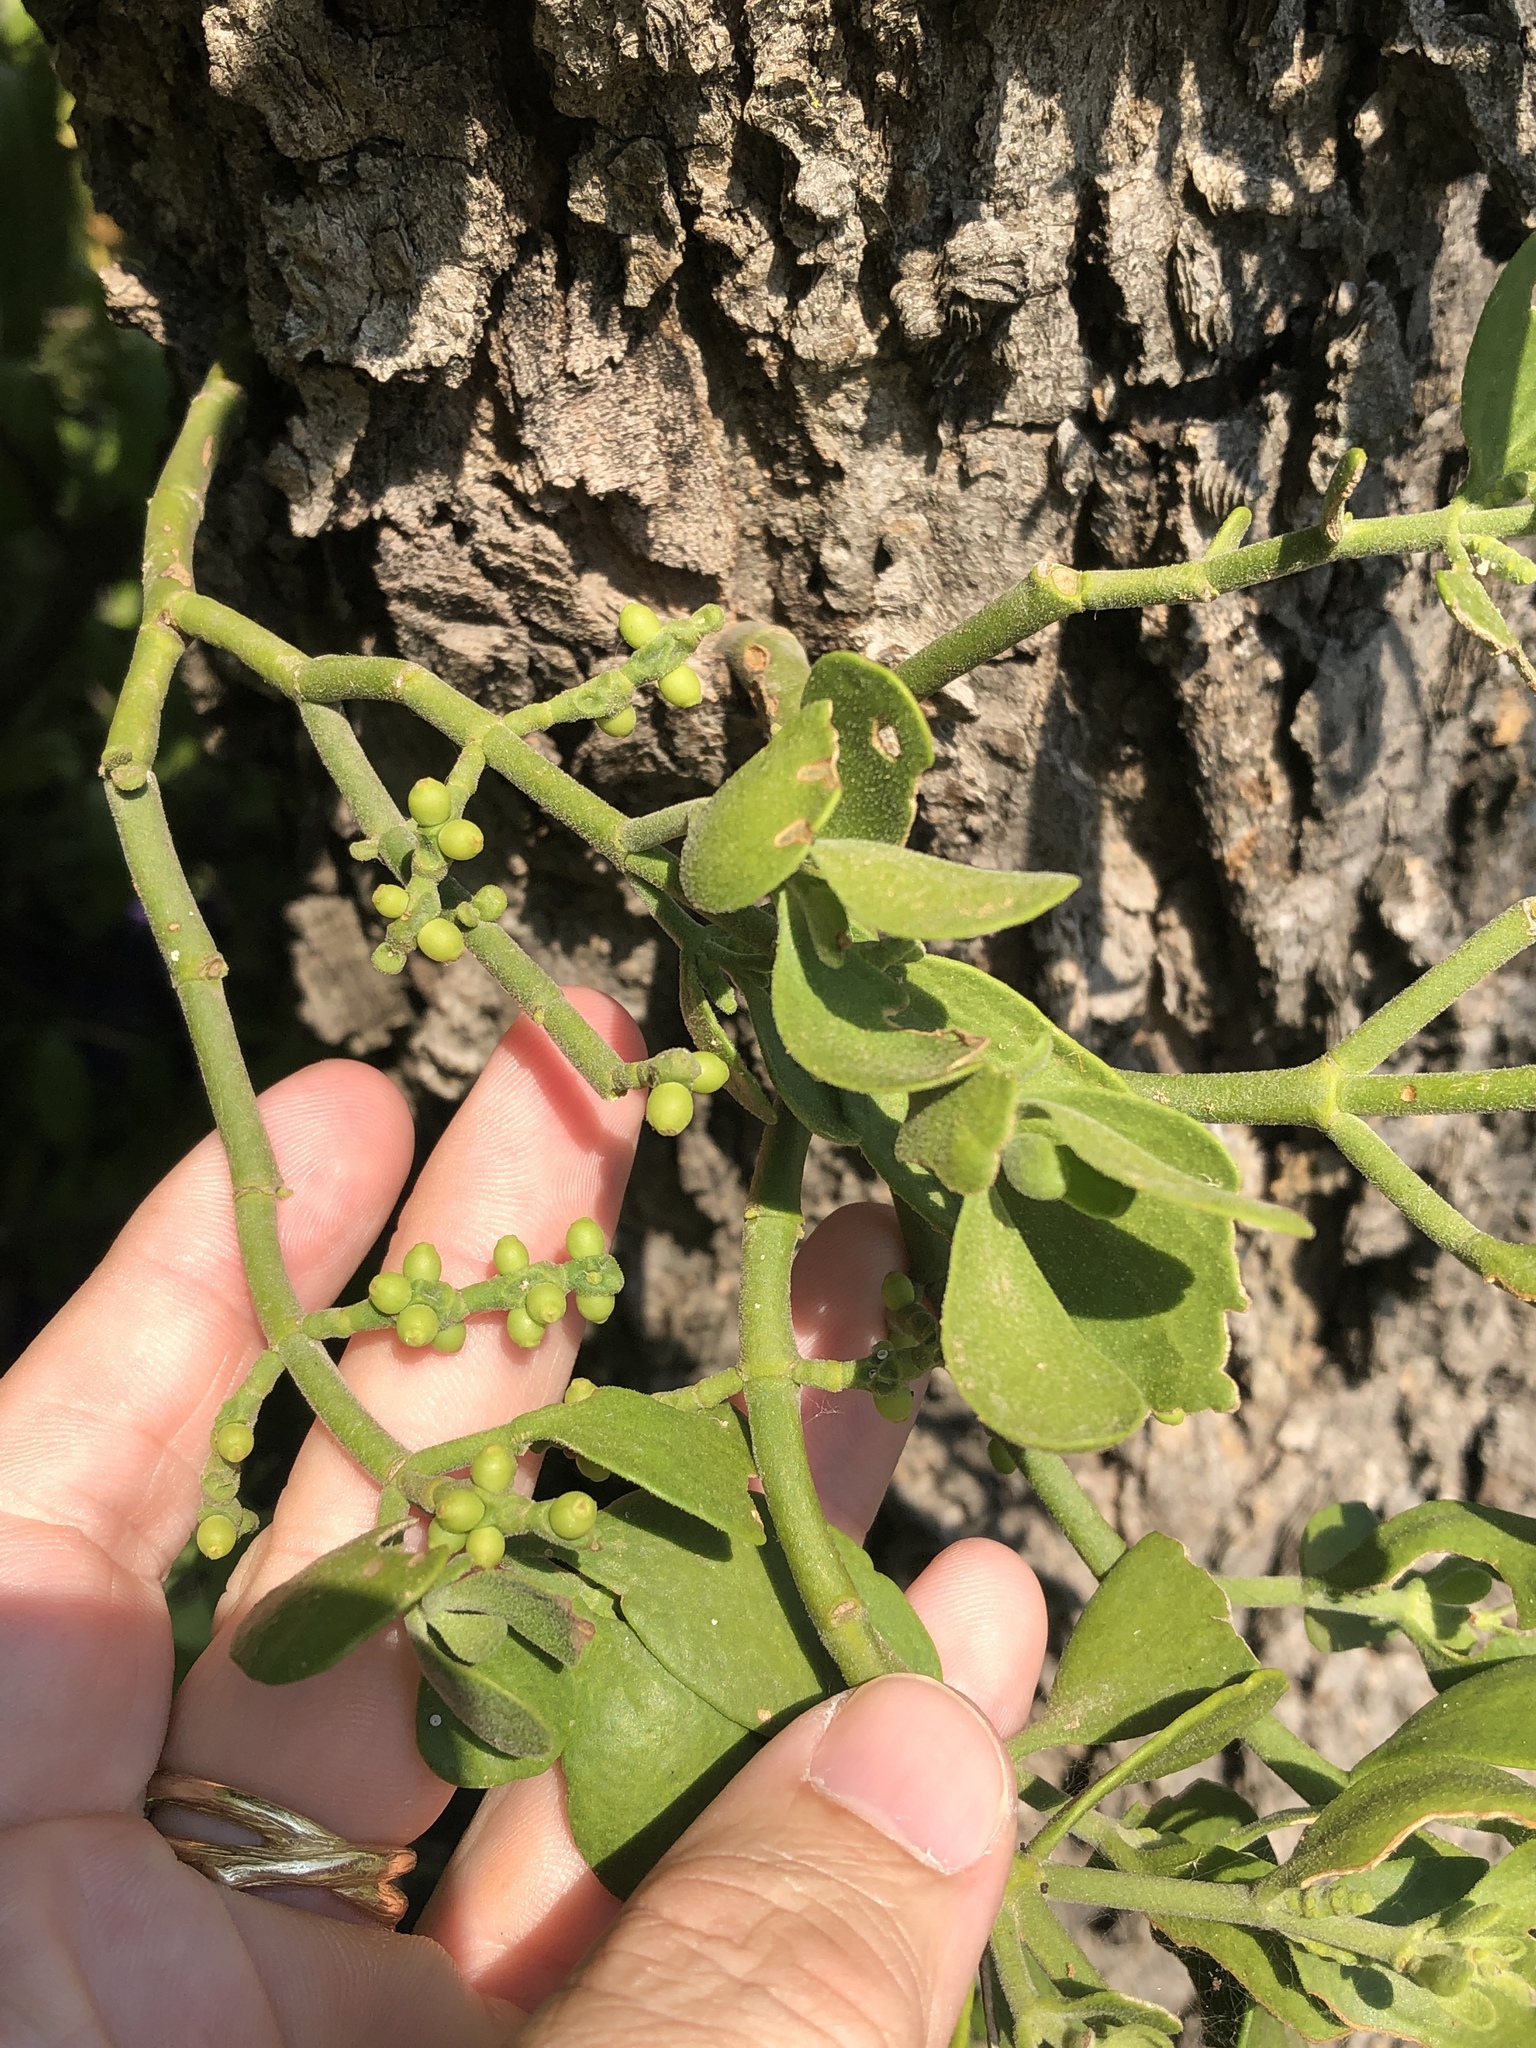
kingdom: Plantae
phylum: Tracheophyta
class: Magnoliopsida
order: Santalales
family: Viscaceae
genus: Phoradendron
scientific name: Phoradendron leucarpum
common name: Pacific mistletoe
